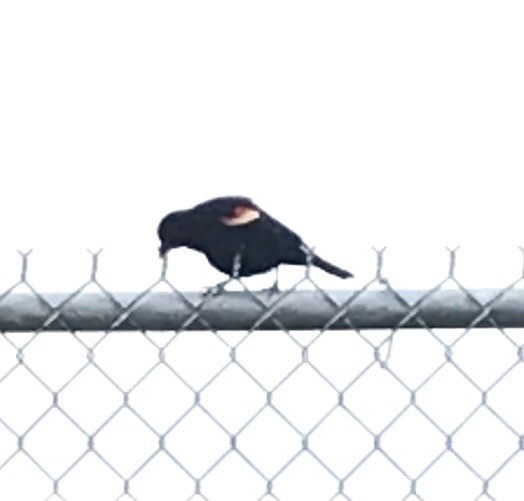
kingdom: Animalia
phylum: Chordata
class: Aves
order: Passeriformes
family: Icteridae
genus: Agelaius
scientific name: Agelaius phoeniceus
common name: Red-winged blackbird
